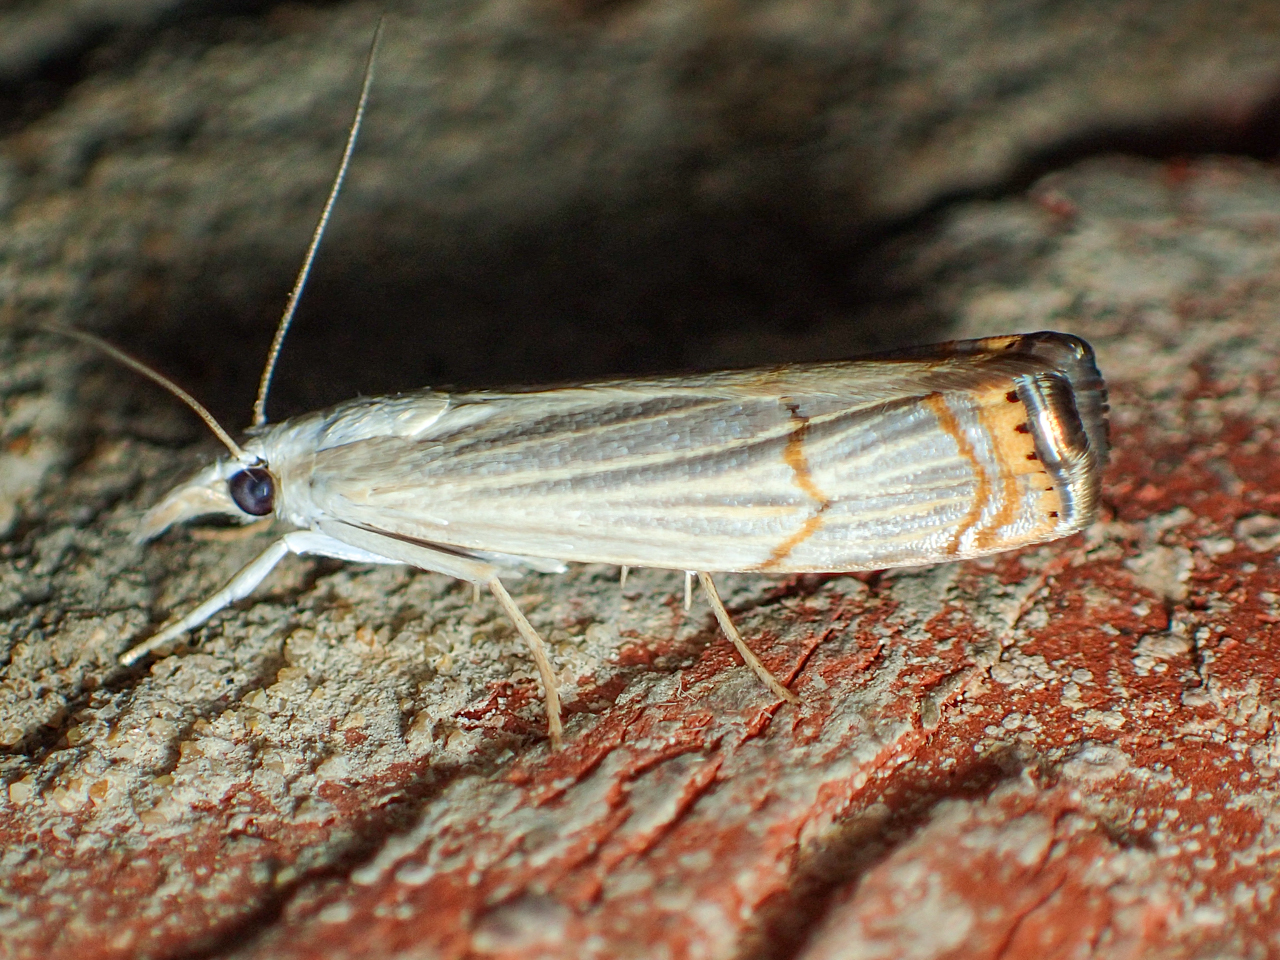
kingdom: Animalia
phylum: Arthropoda
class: Insecta
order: Lepidoptera
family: Crambidae
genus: Parapediasia
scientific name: Parapediasia decorellus
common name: Graceful grass-veneer
